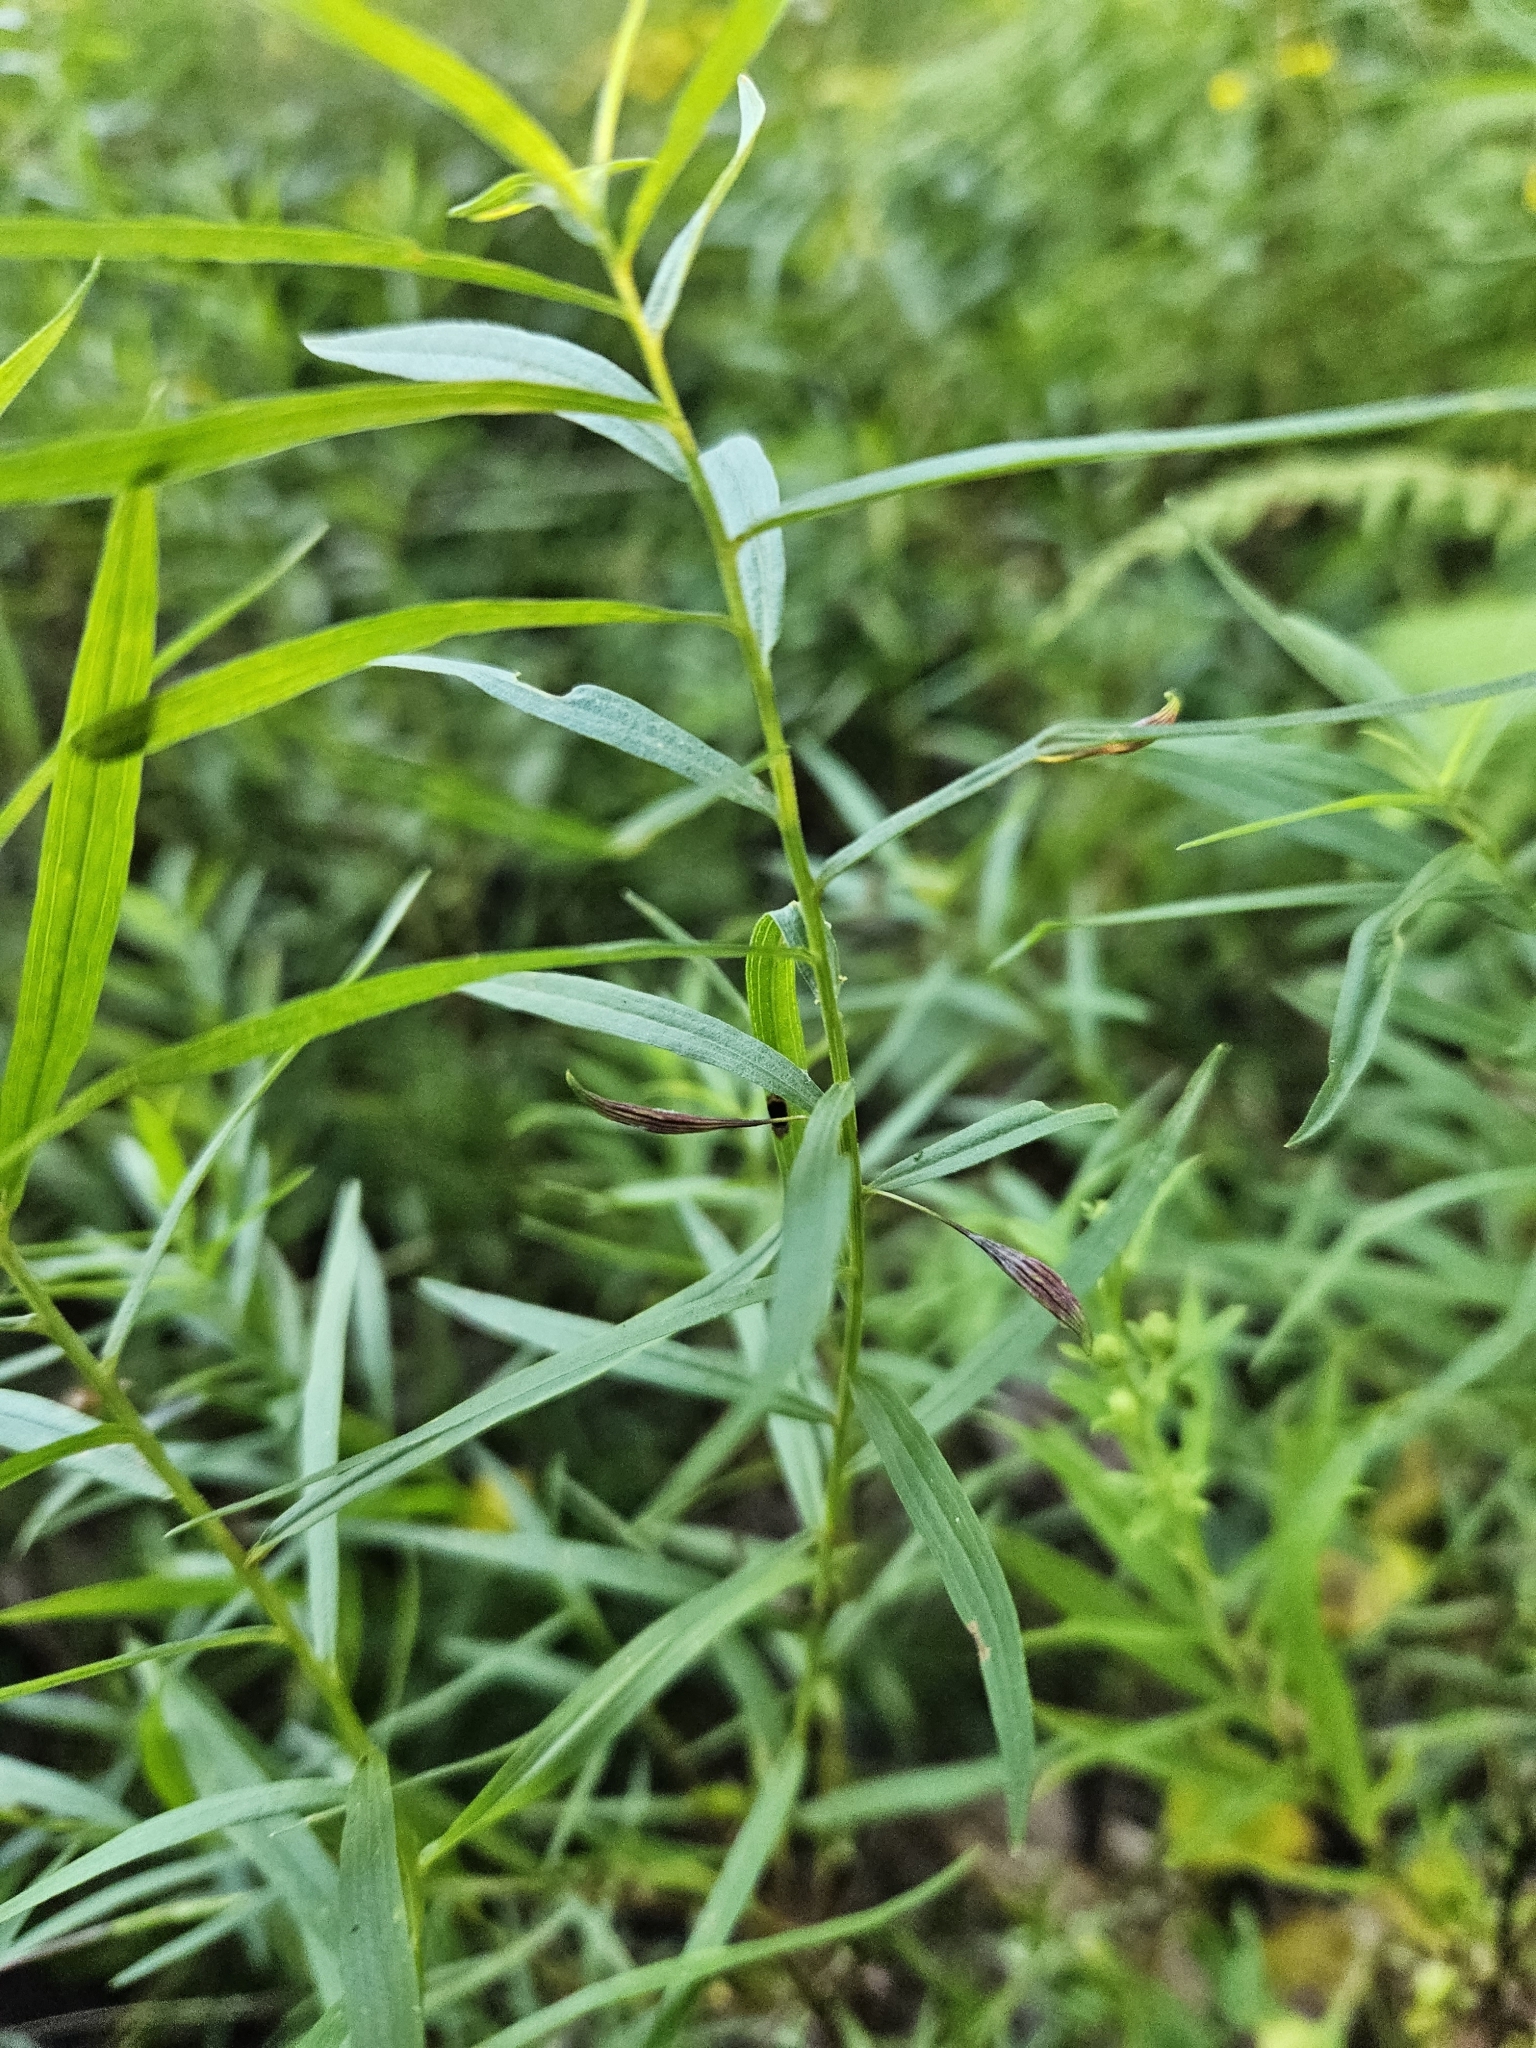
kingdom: Animalia
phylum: Arthropoda
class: Insecta
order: Diptera
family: Cecidomyiidae
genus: Rhopalomyia
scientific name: Rhopalomyia pedicellata
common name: Goldentop pedicellate gall midge
